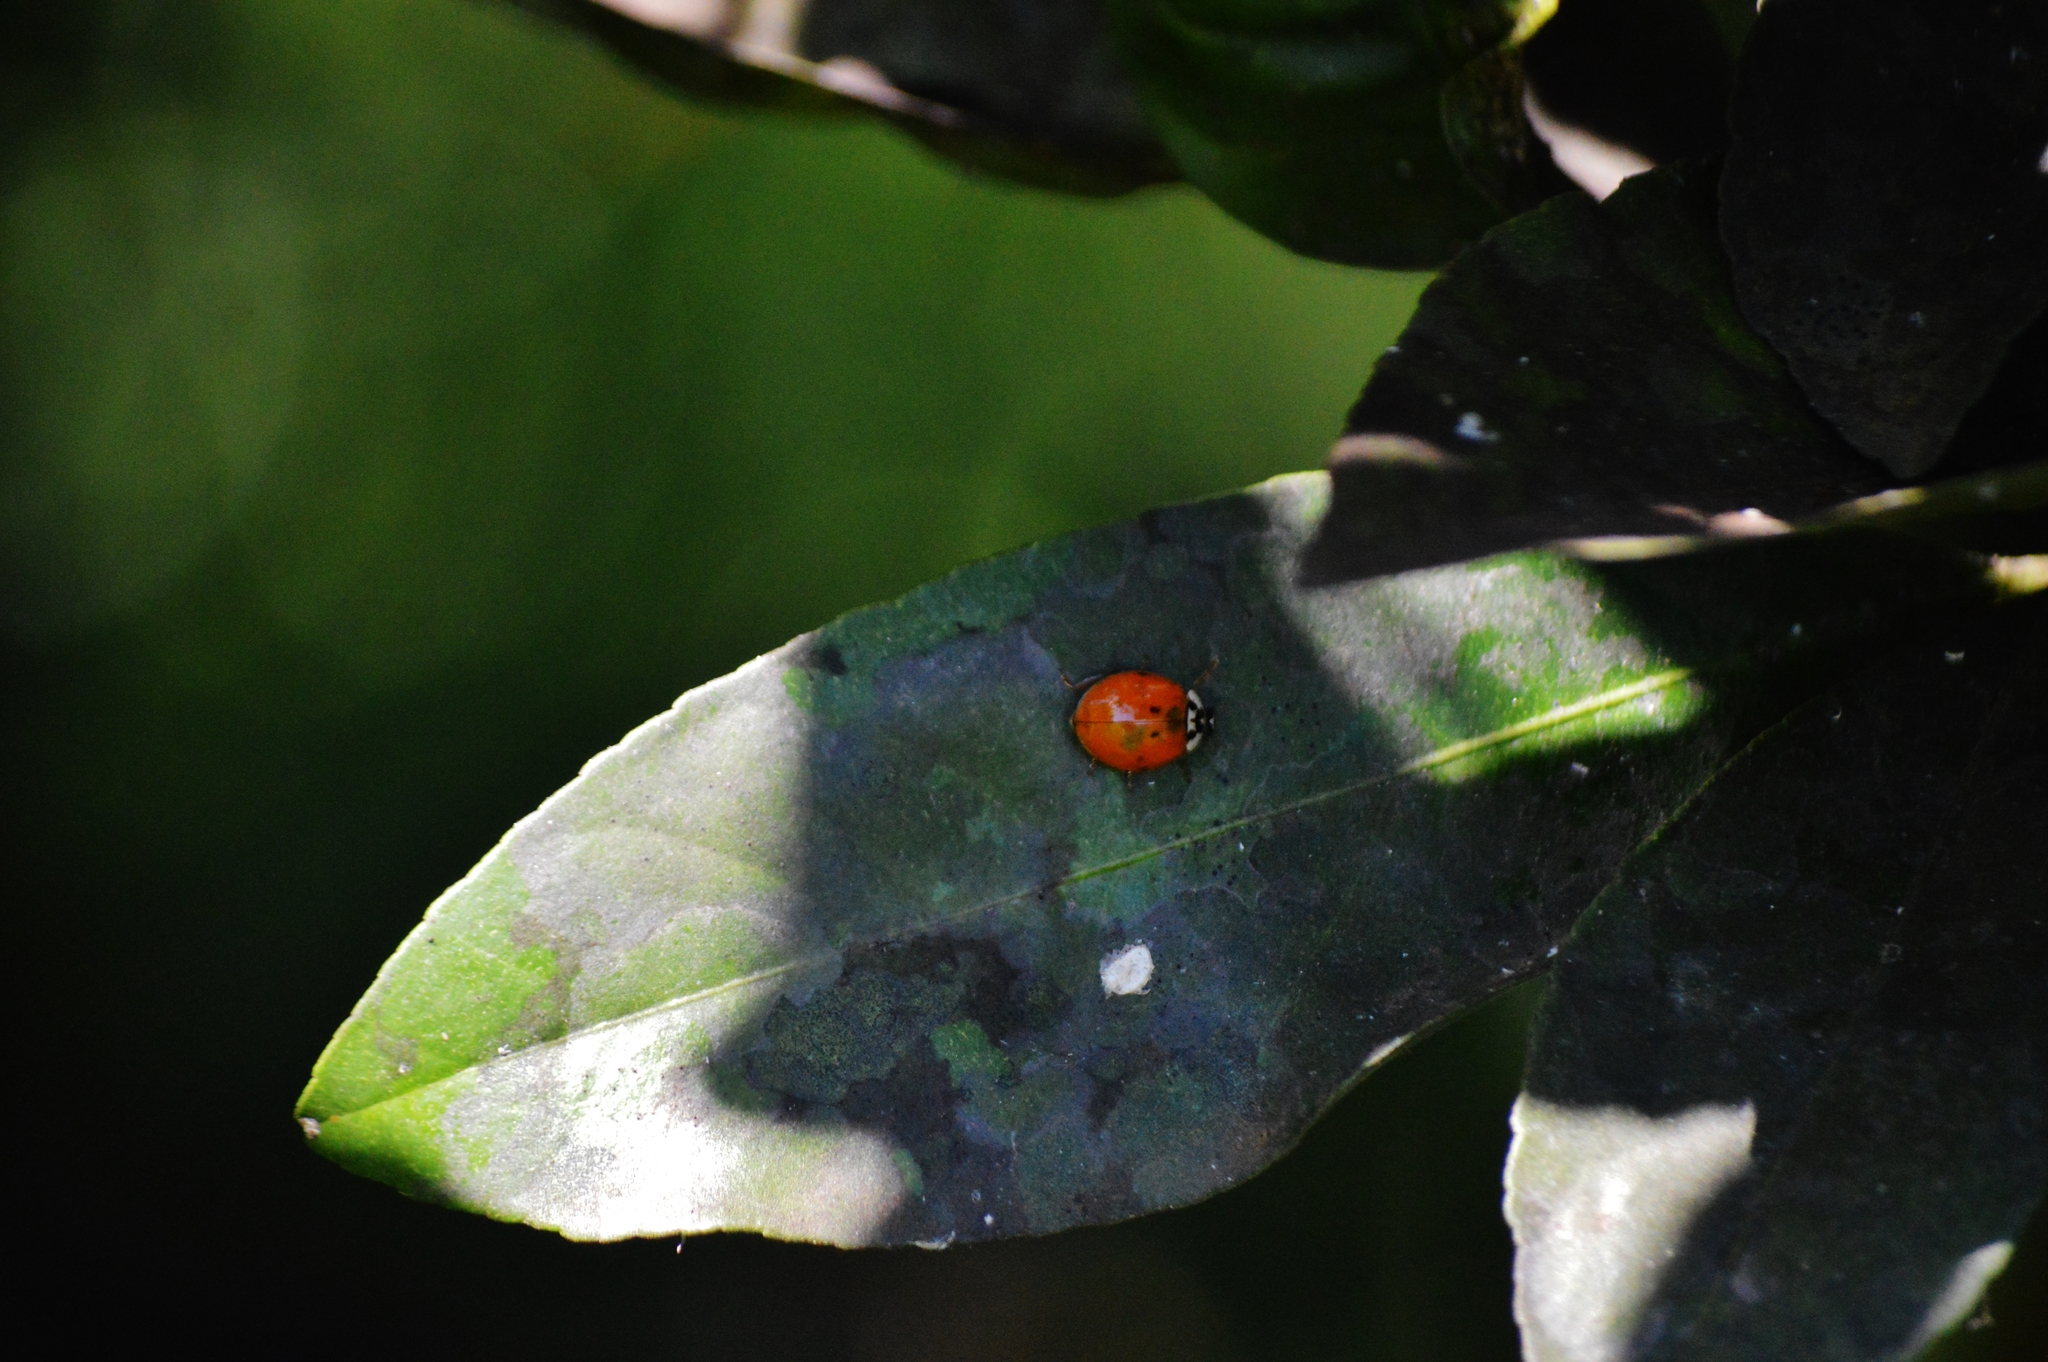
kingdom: Animalia
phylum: Arthropoda
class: Insecta
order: Coleoptera
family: Coccinellidae
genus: Harmonia
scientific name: Harmonia axyridis
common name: Harlequin ladybird
